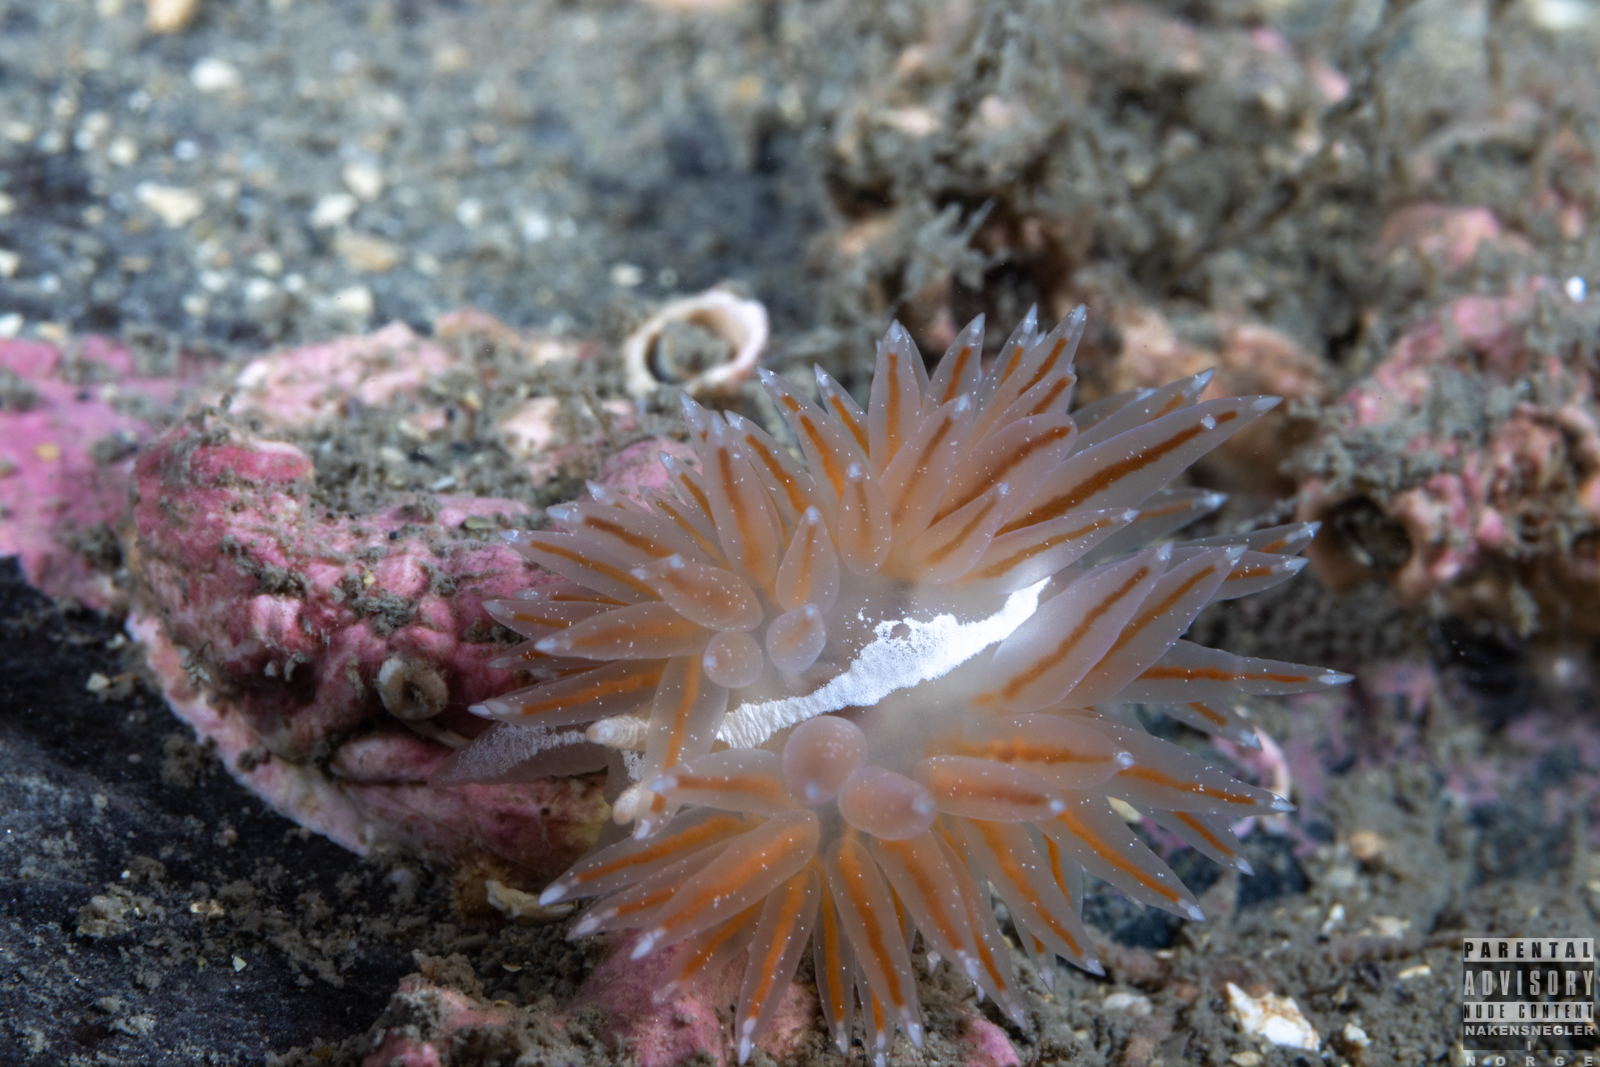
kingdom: Animalia
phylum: Mollusca
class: Gastropoda
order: Nudibranchia
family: Coryphellidae
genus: Coryphella
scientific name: Coryphella monicae
